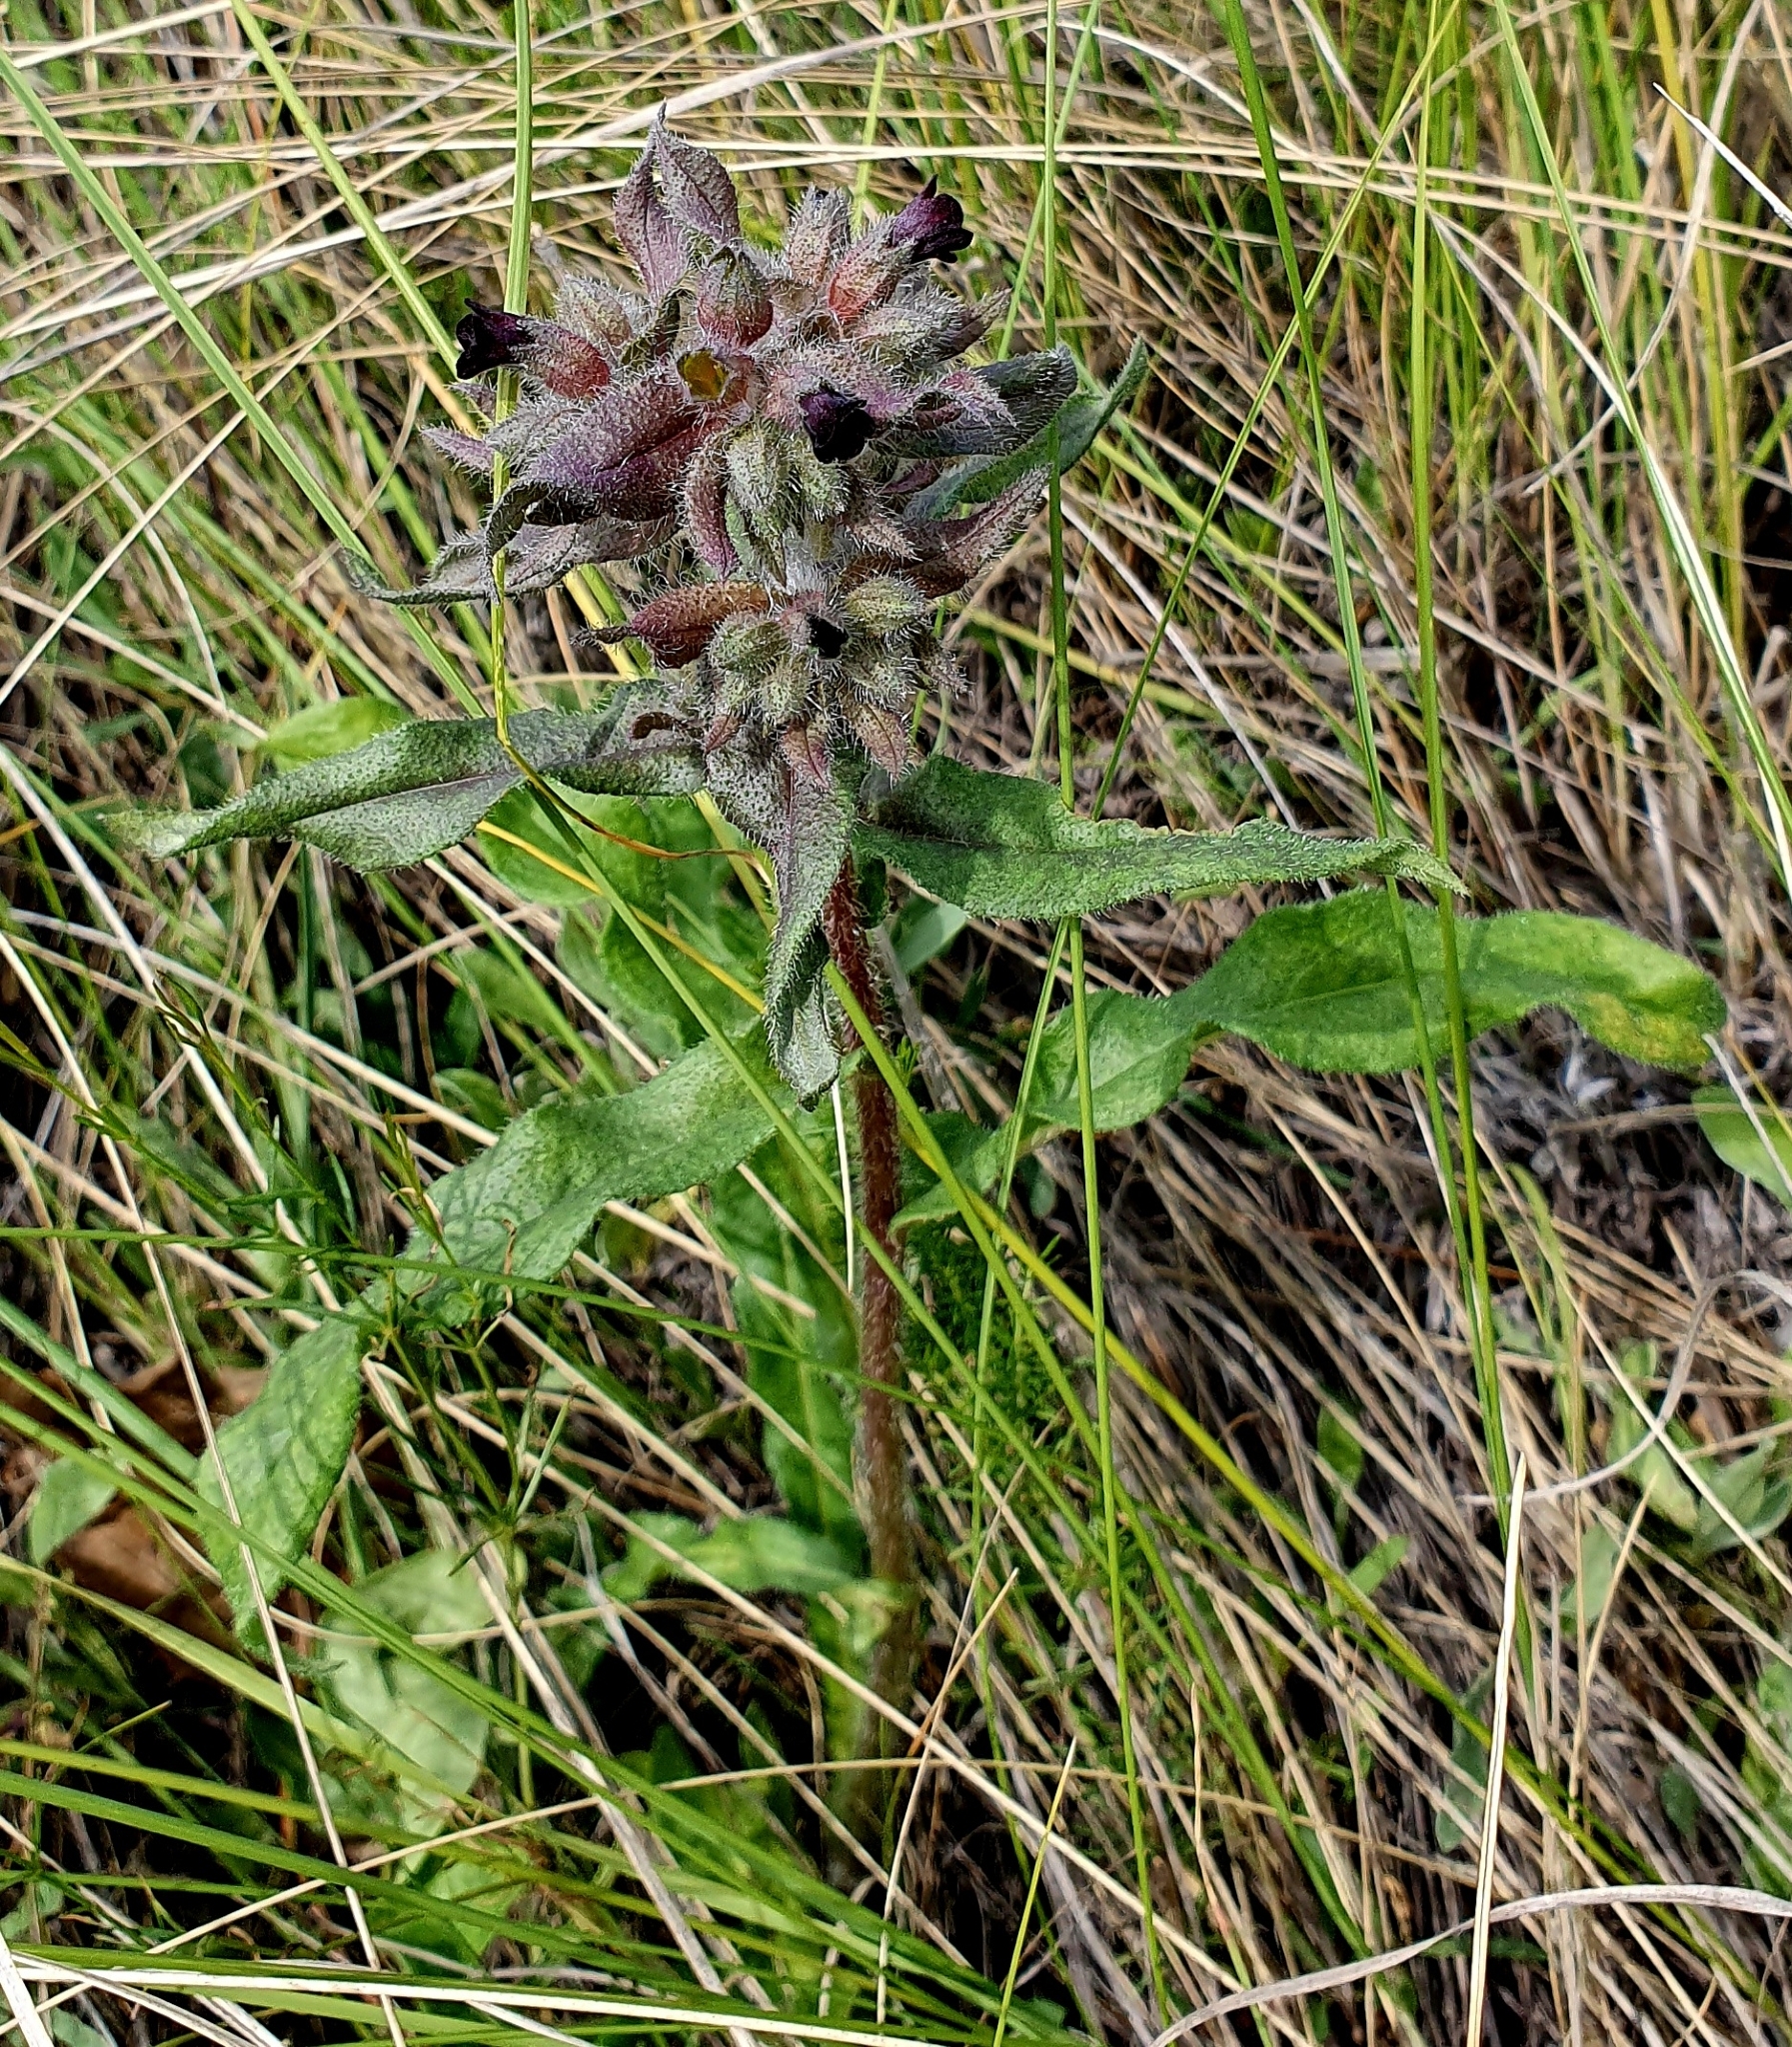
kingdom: Plantae
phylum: Tracheophyta
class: Magnoliopsida
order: Boraginales
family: Boraginaceae
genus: Nonea
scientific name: Nonea pulla
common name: Brown nonea
